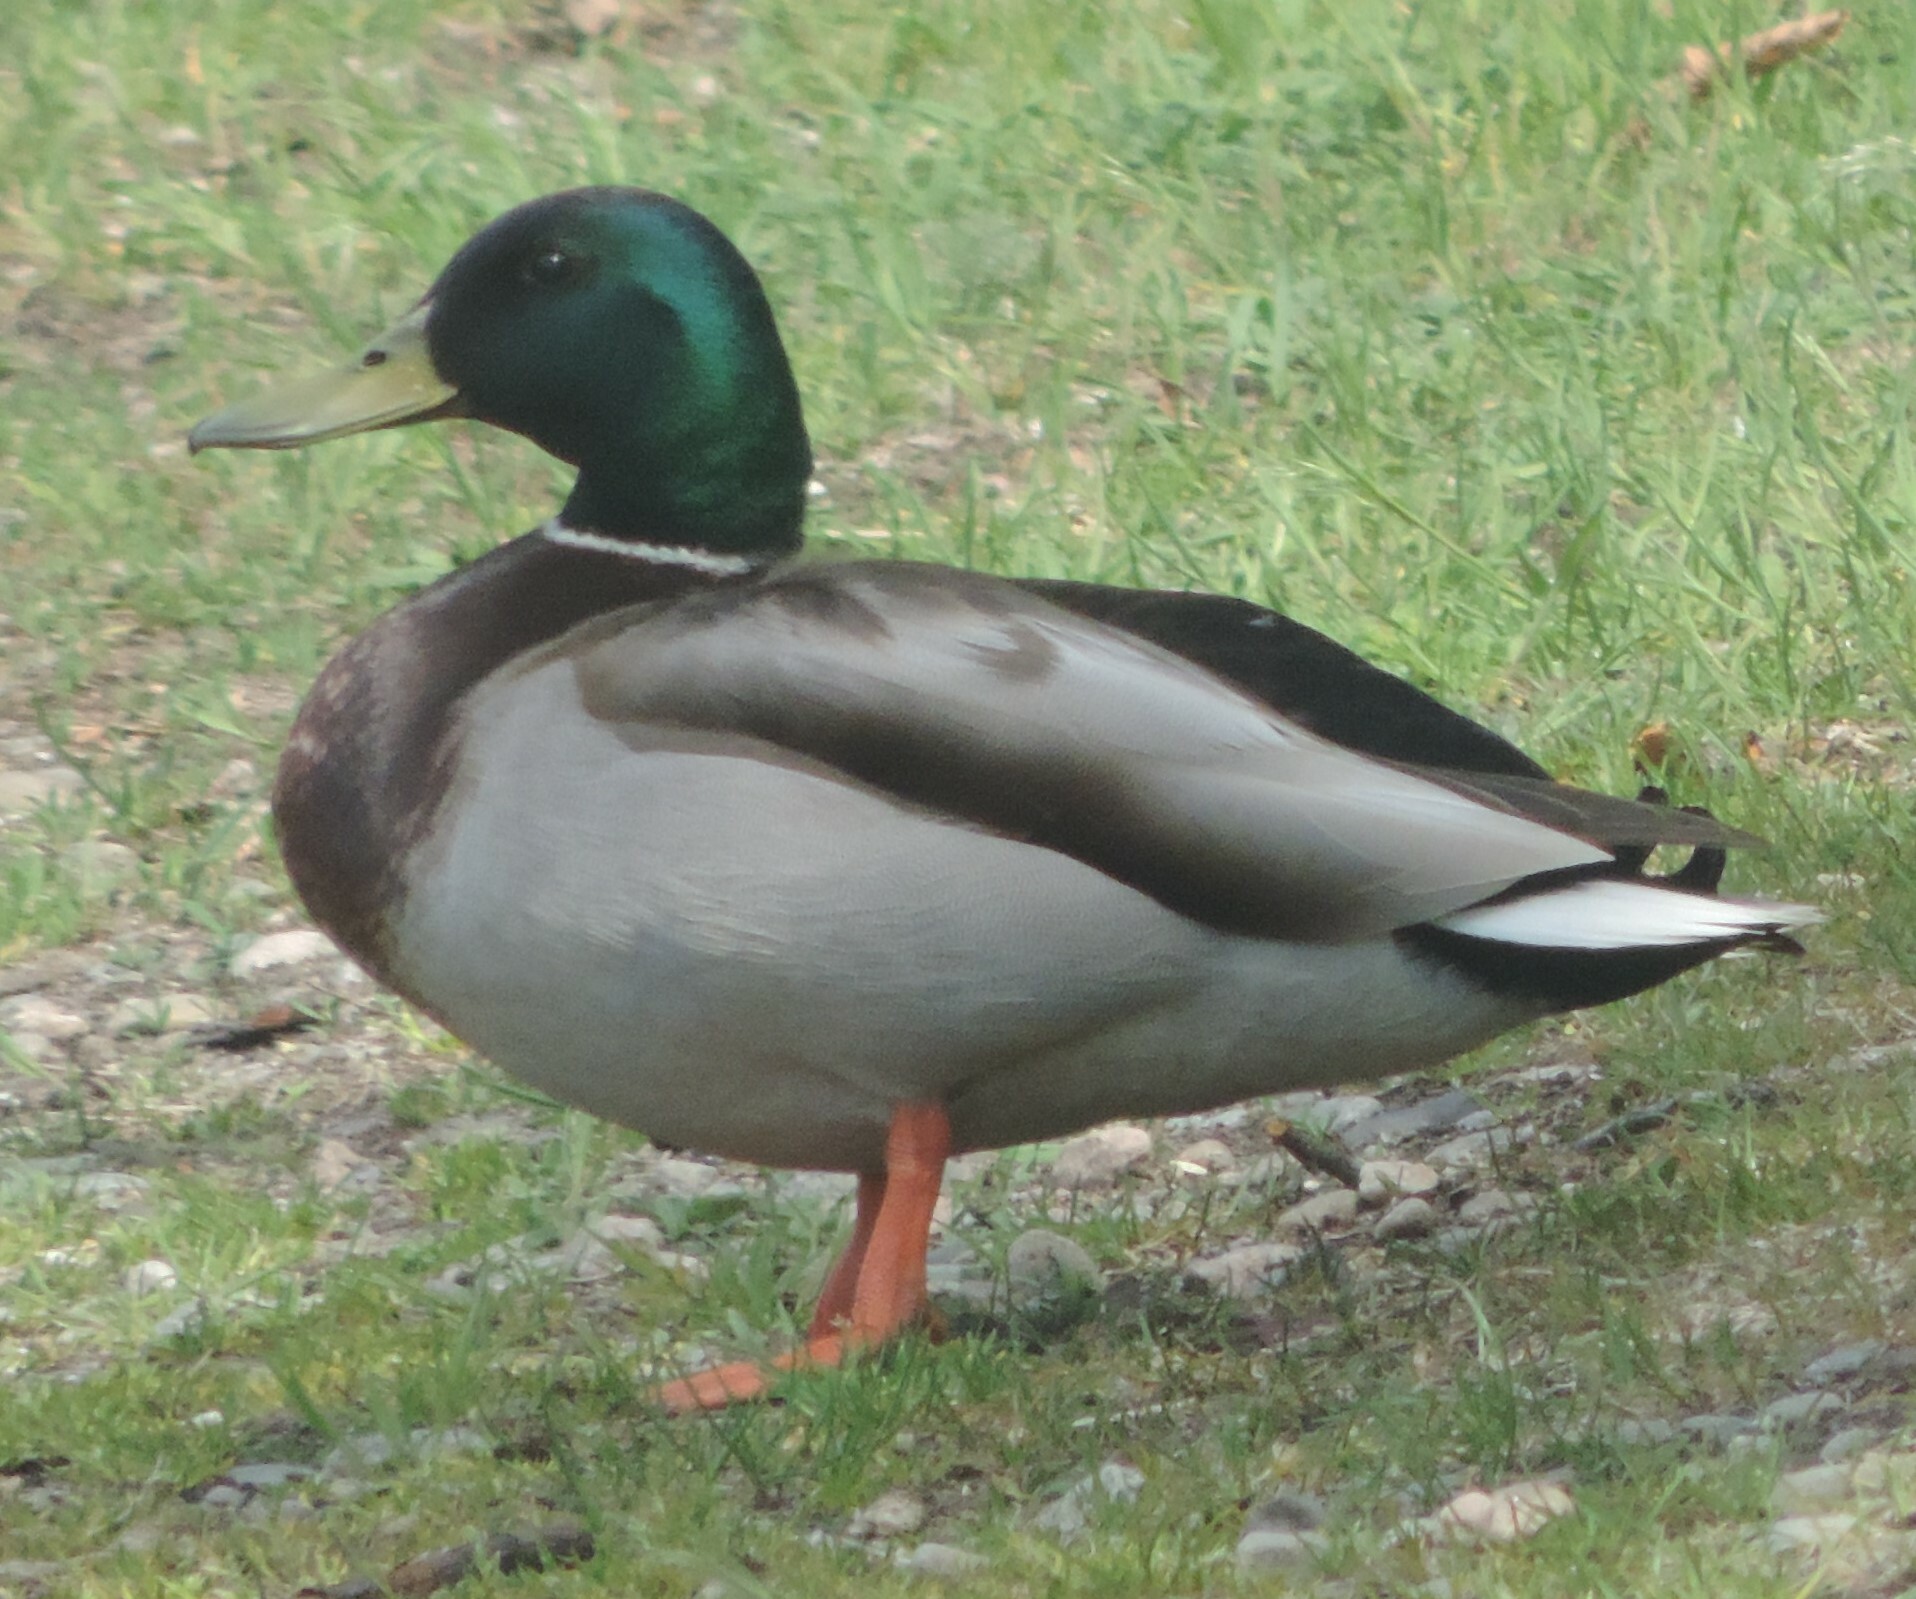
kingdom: Animalia
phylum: Chordata
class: Aves
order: Anseriformes
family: Anatidae
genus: Anas
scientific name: Anas platyrhynchos
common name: Mallard
